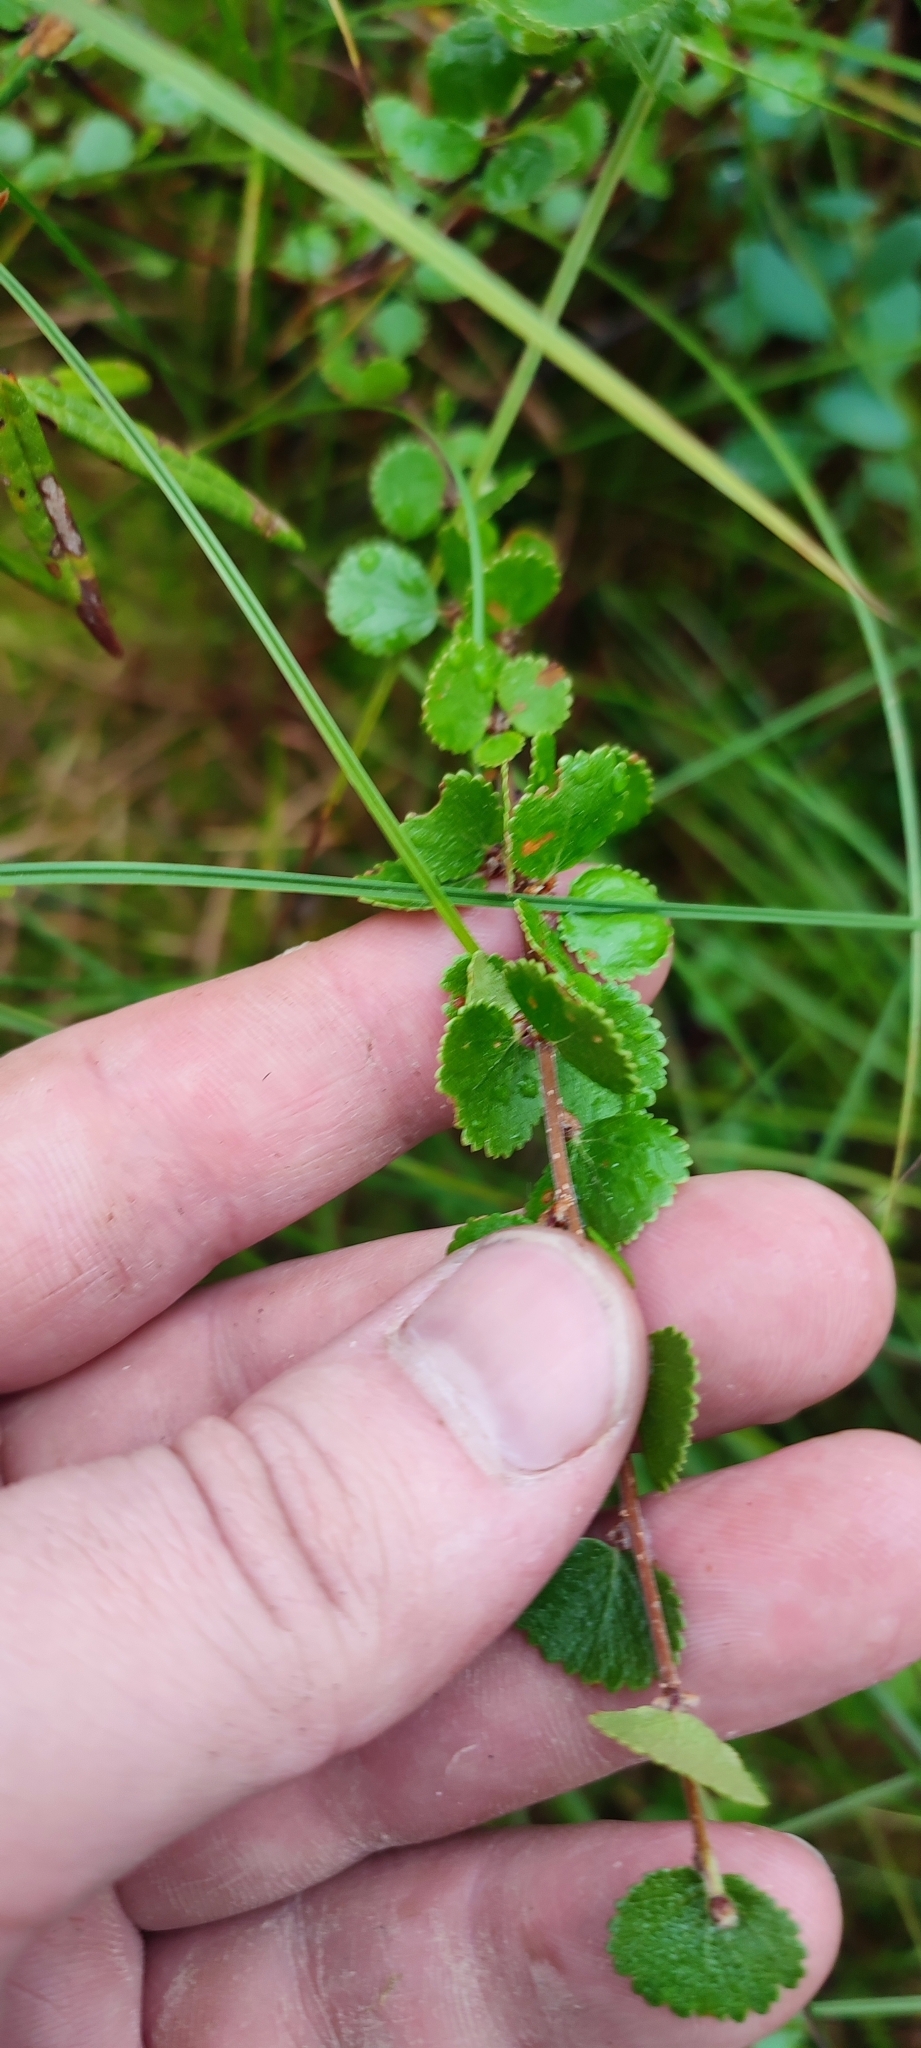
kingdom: Plantae
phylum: Tracheophyta
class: Magnoliopsida
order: Fagales
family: Betulaceae
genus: Betula
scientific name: Betula nana
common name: Arctic dwarf birch
